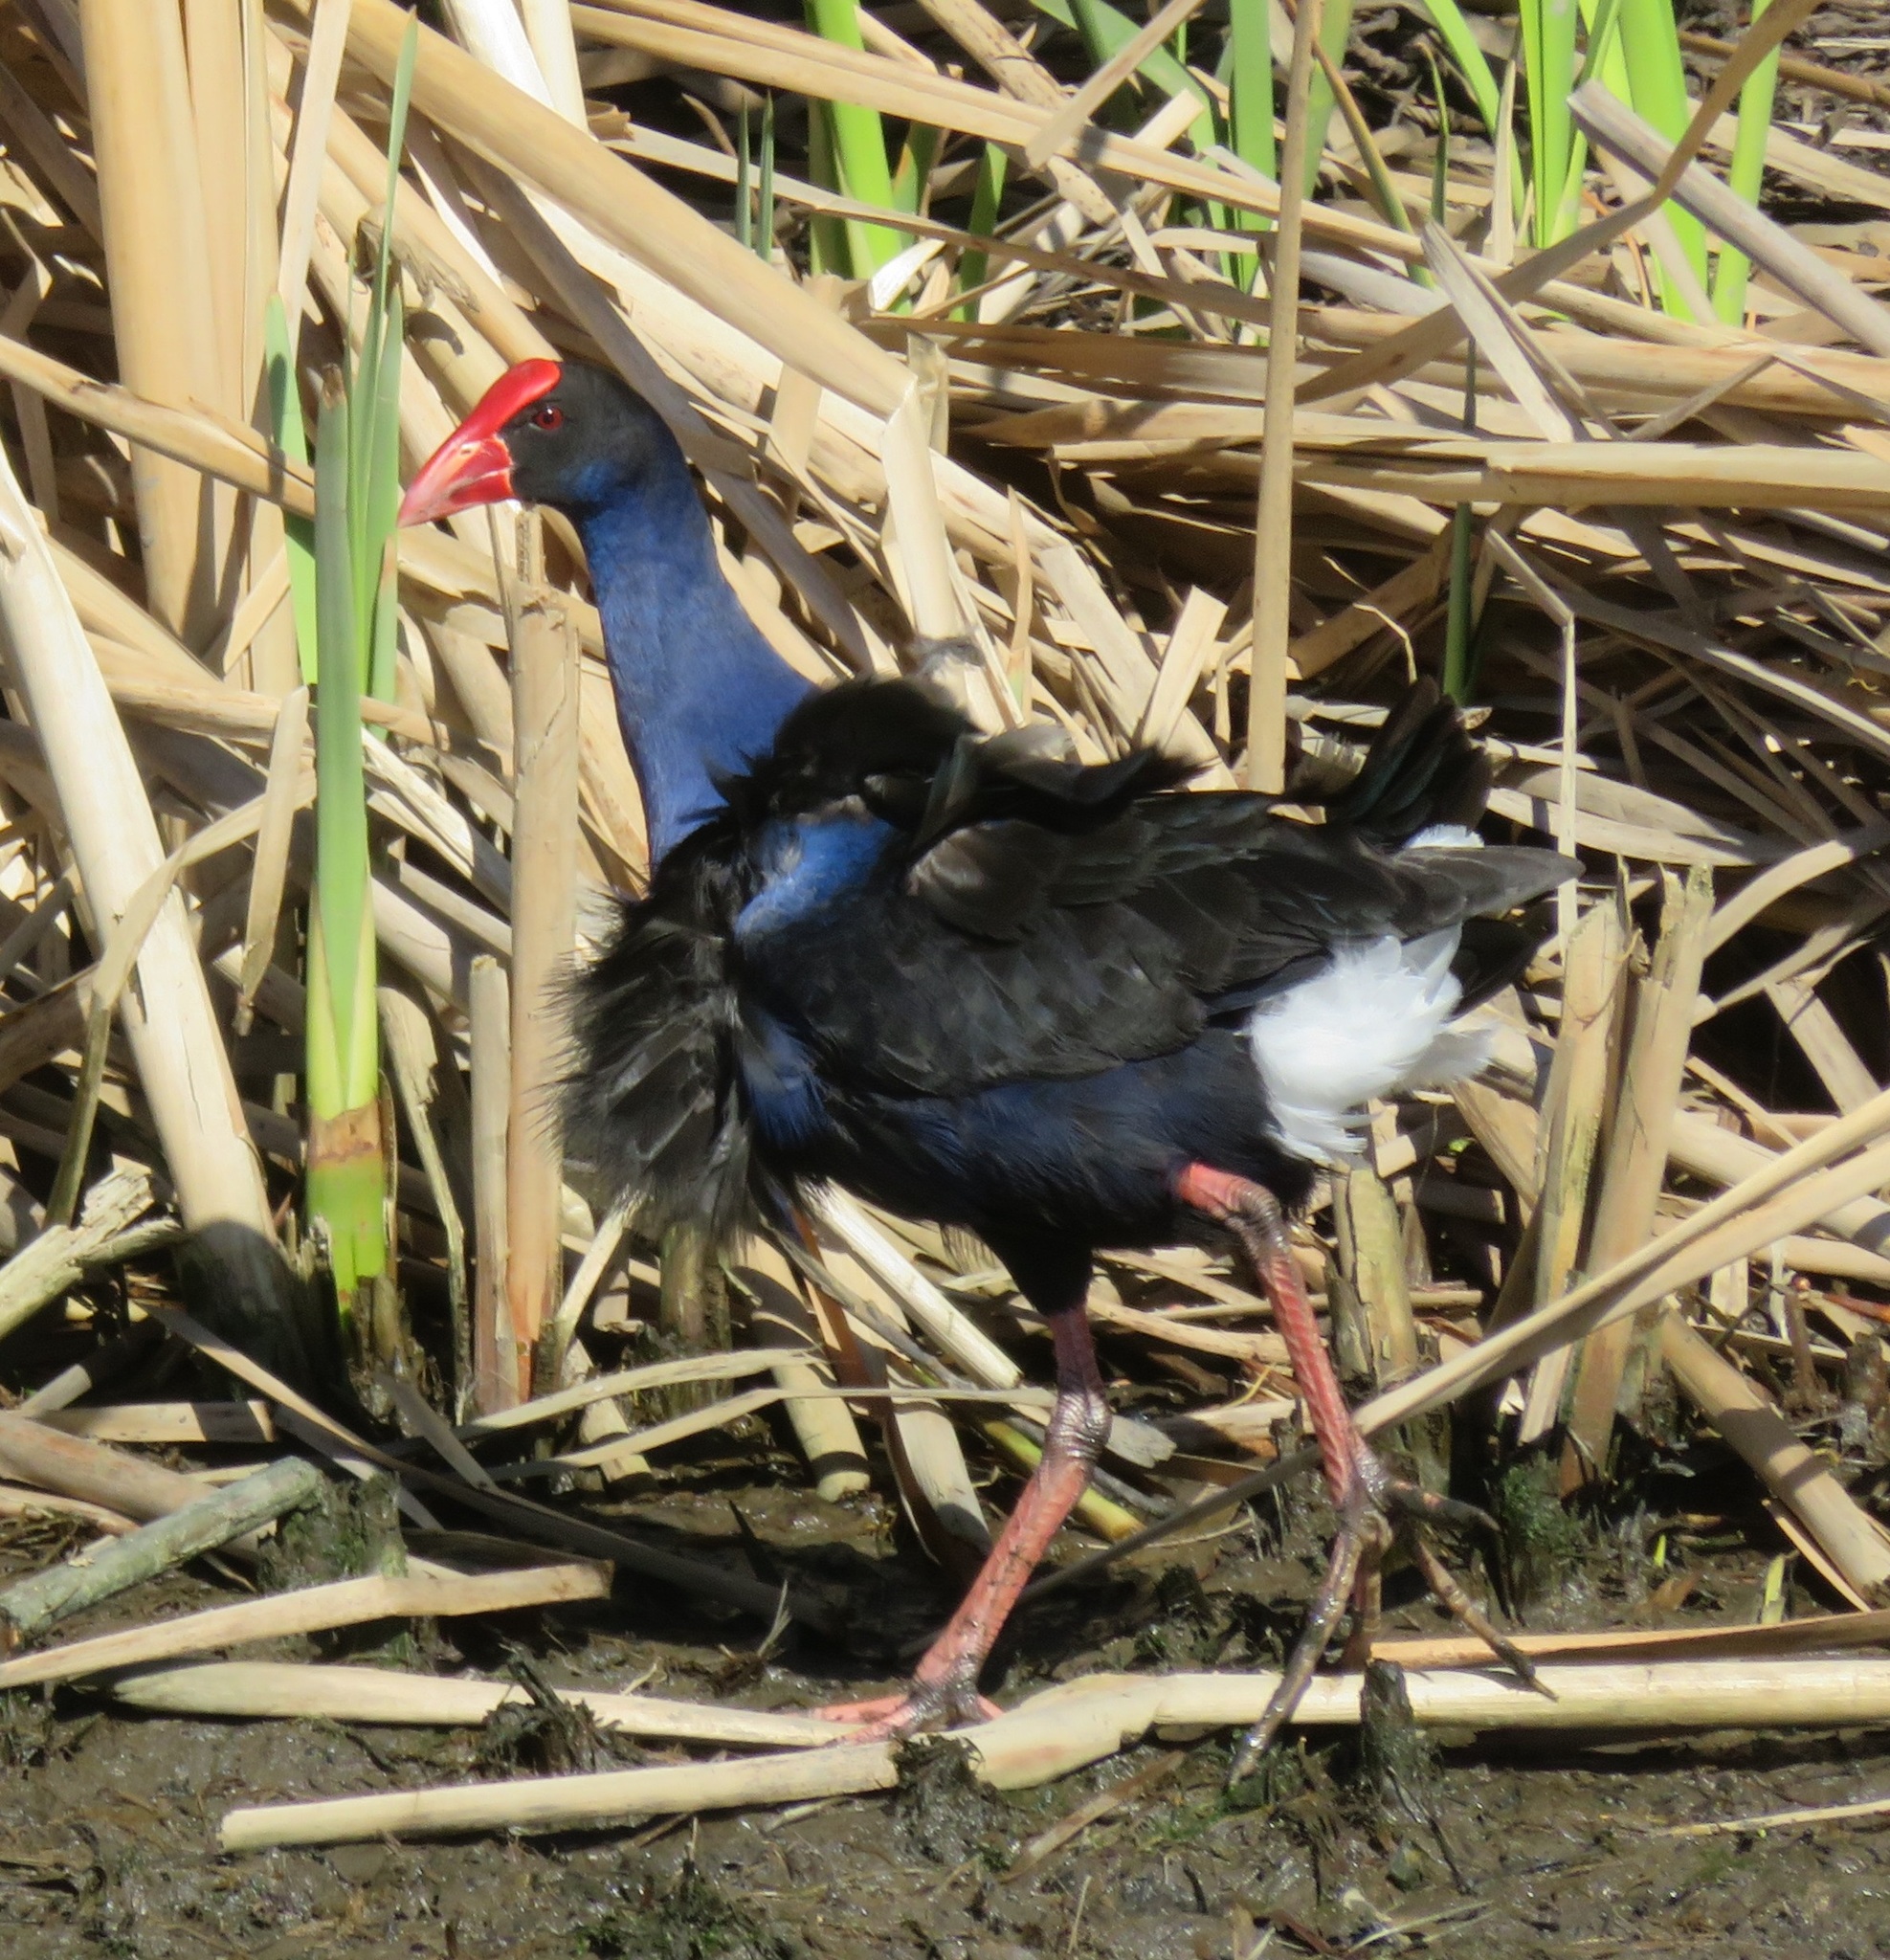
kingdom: Animalia
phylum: Chordata
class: Aves
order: Gruiformes
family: Rallidae
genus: Porphyrio
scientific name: Porphyrio melanotus
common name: Australasian swamphen
